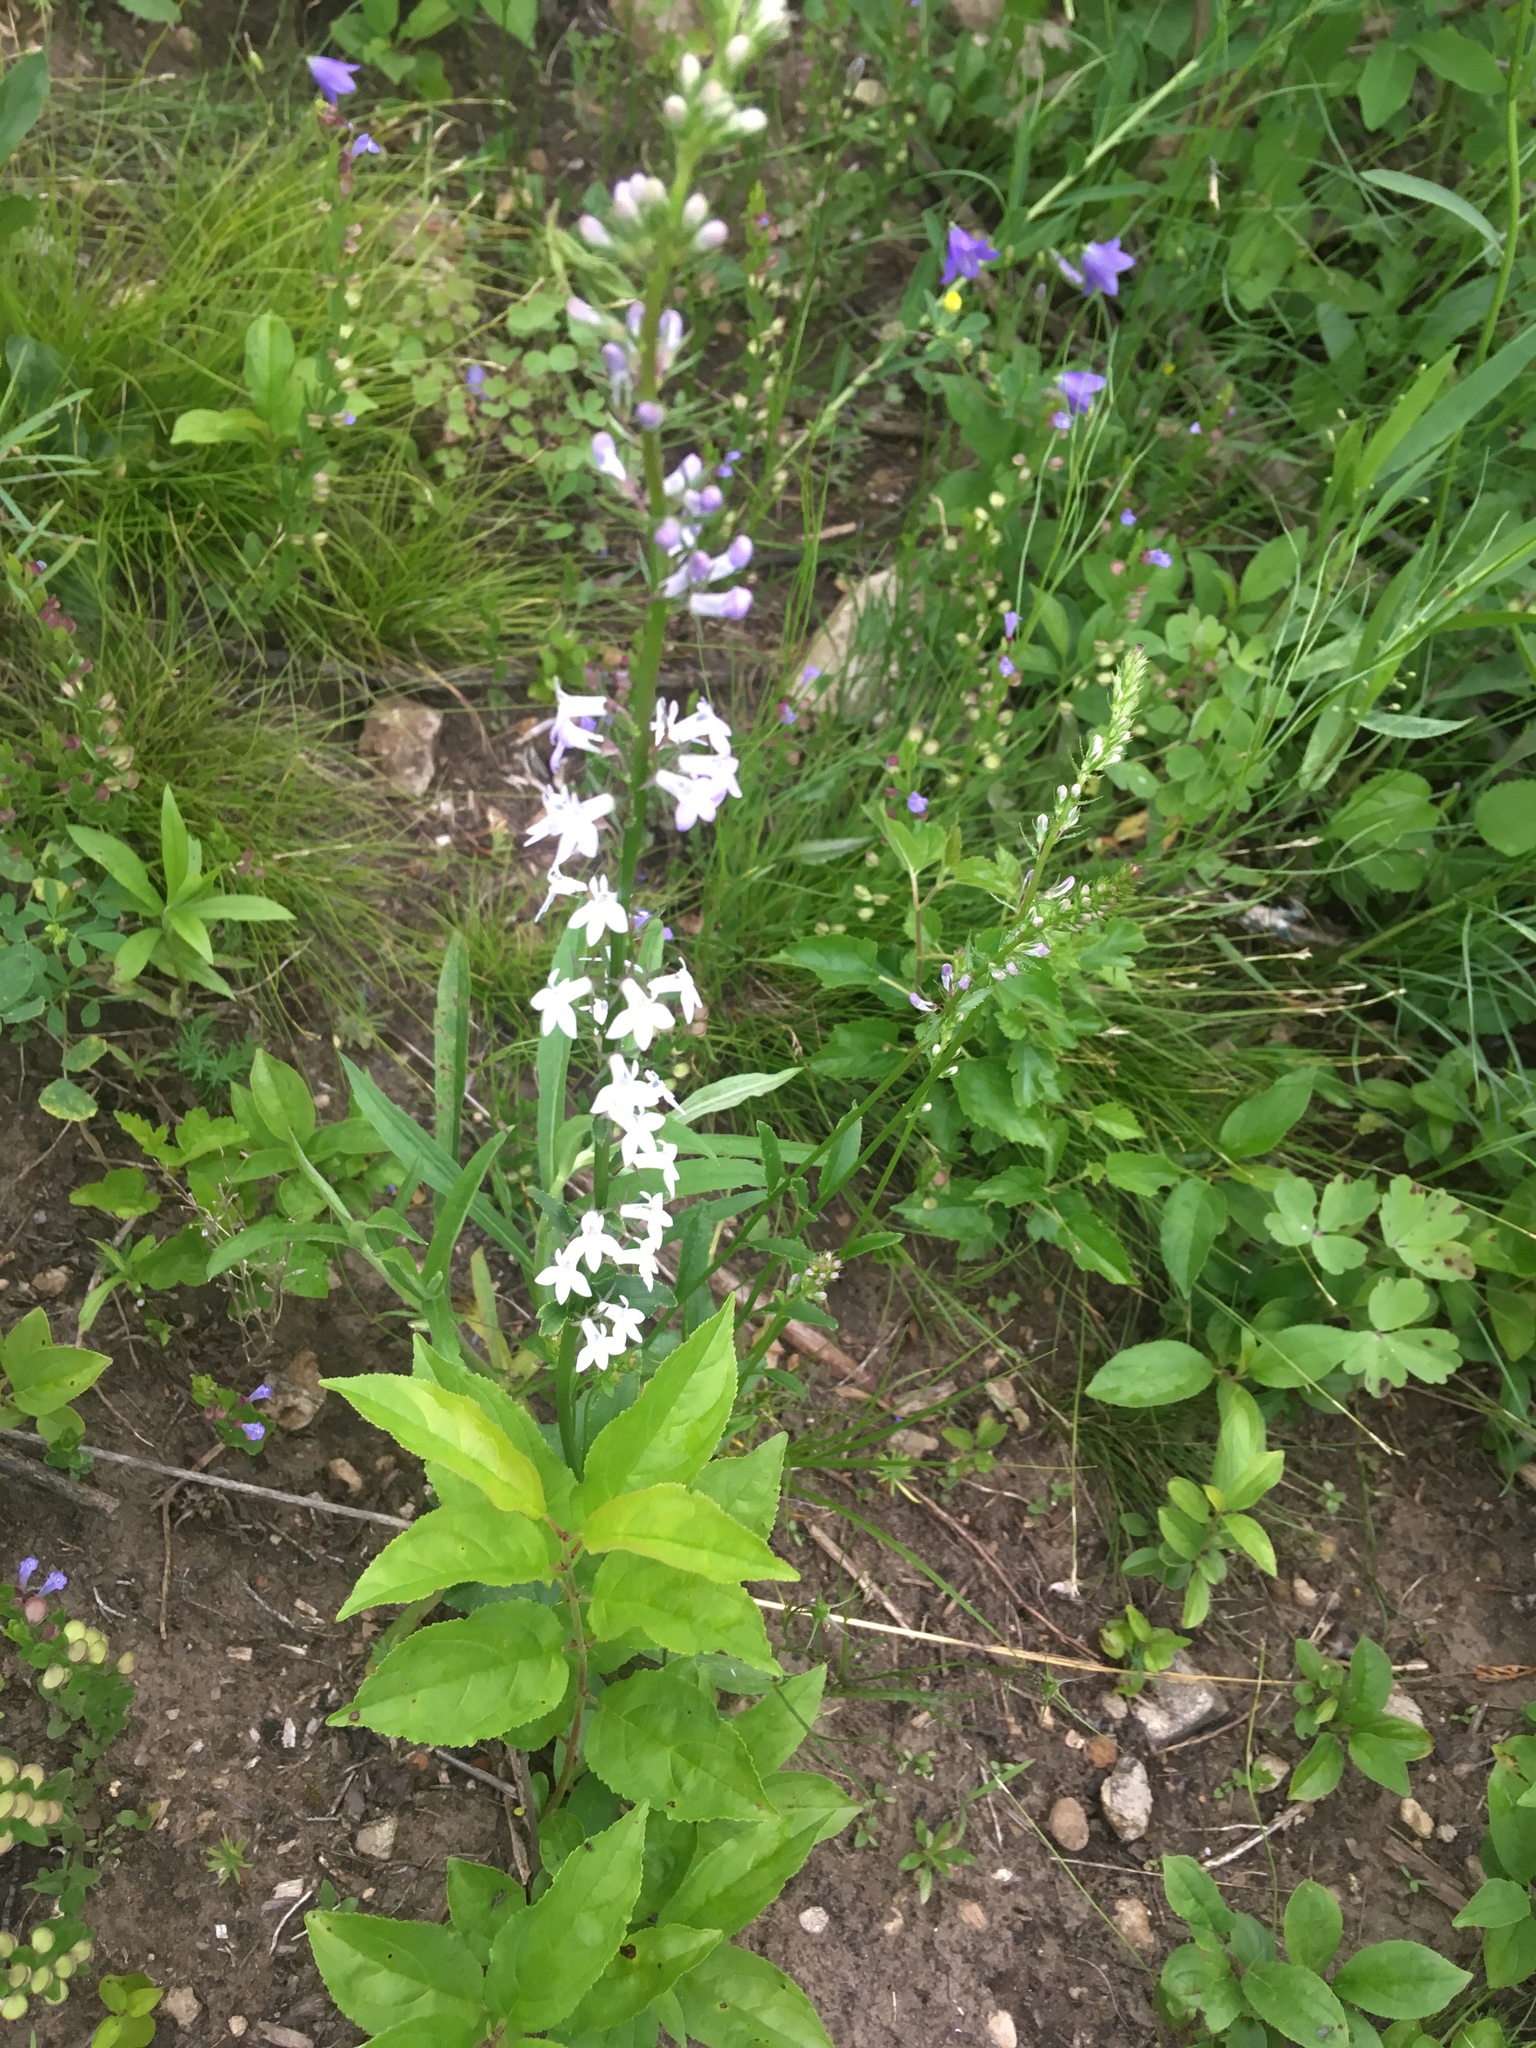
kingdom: Plantae
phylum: Tracheophyta
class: Magnoliopsida
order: Asterales
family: Campanulaceae
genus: Lobelia
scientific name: Lobelia spicata
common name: Pale-spike lobelia
